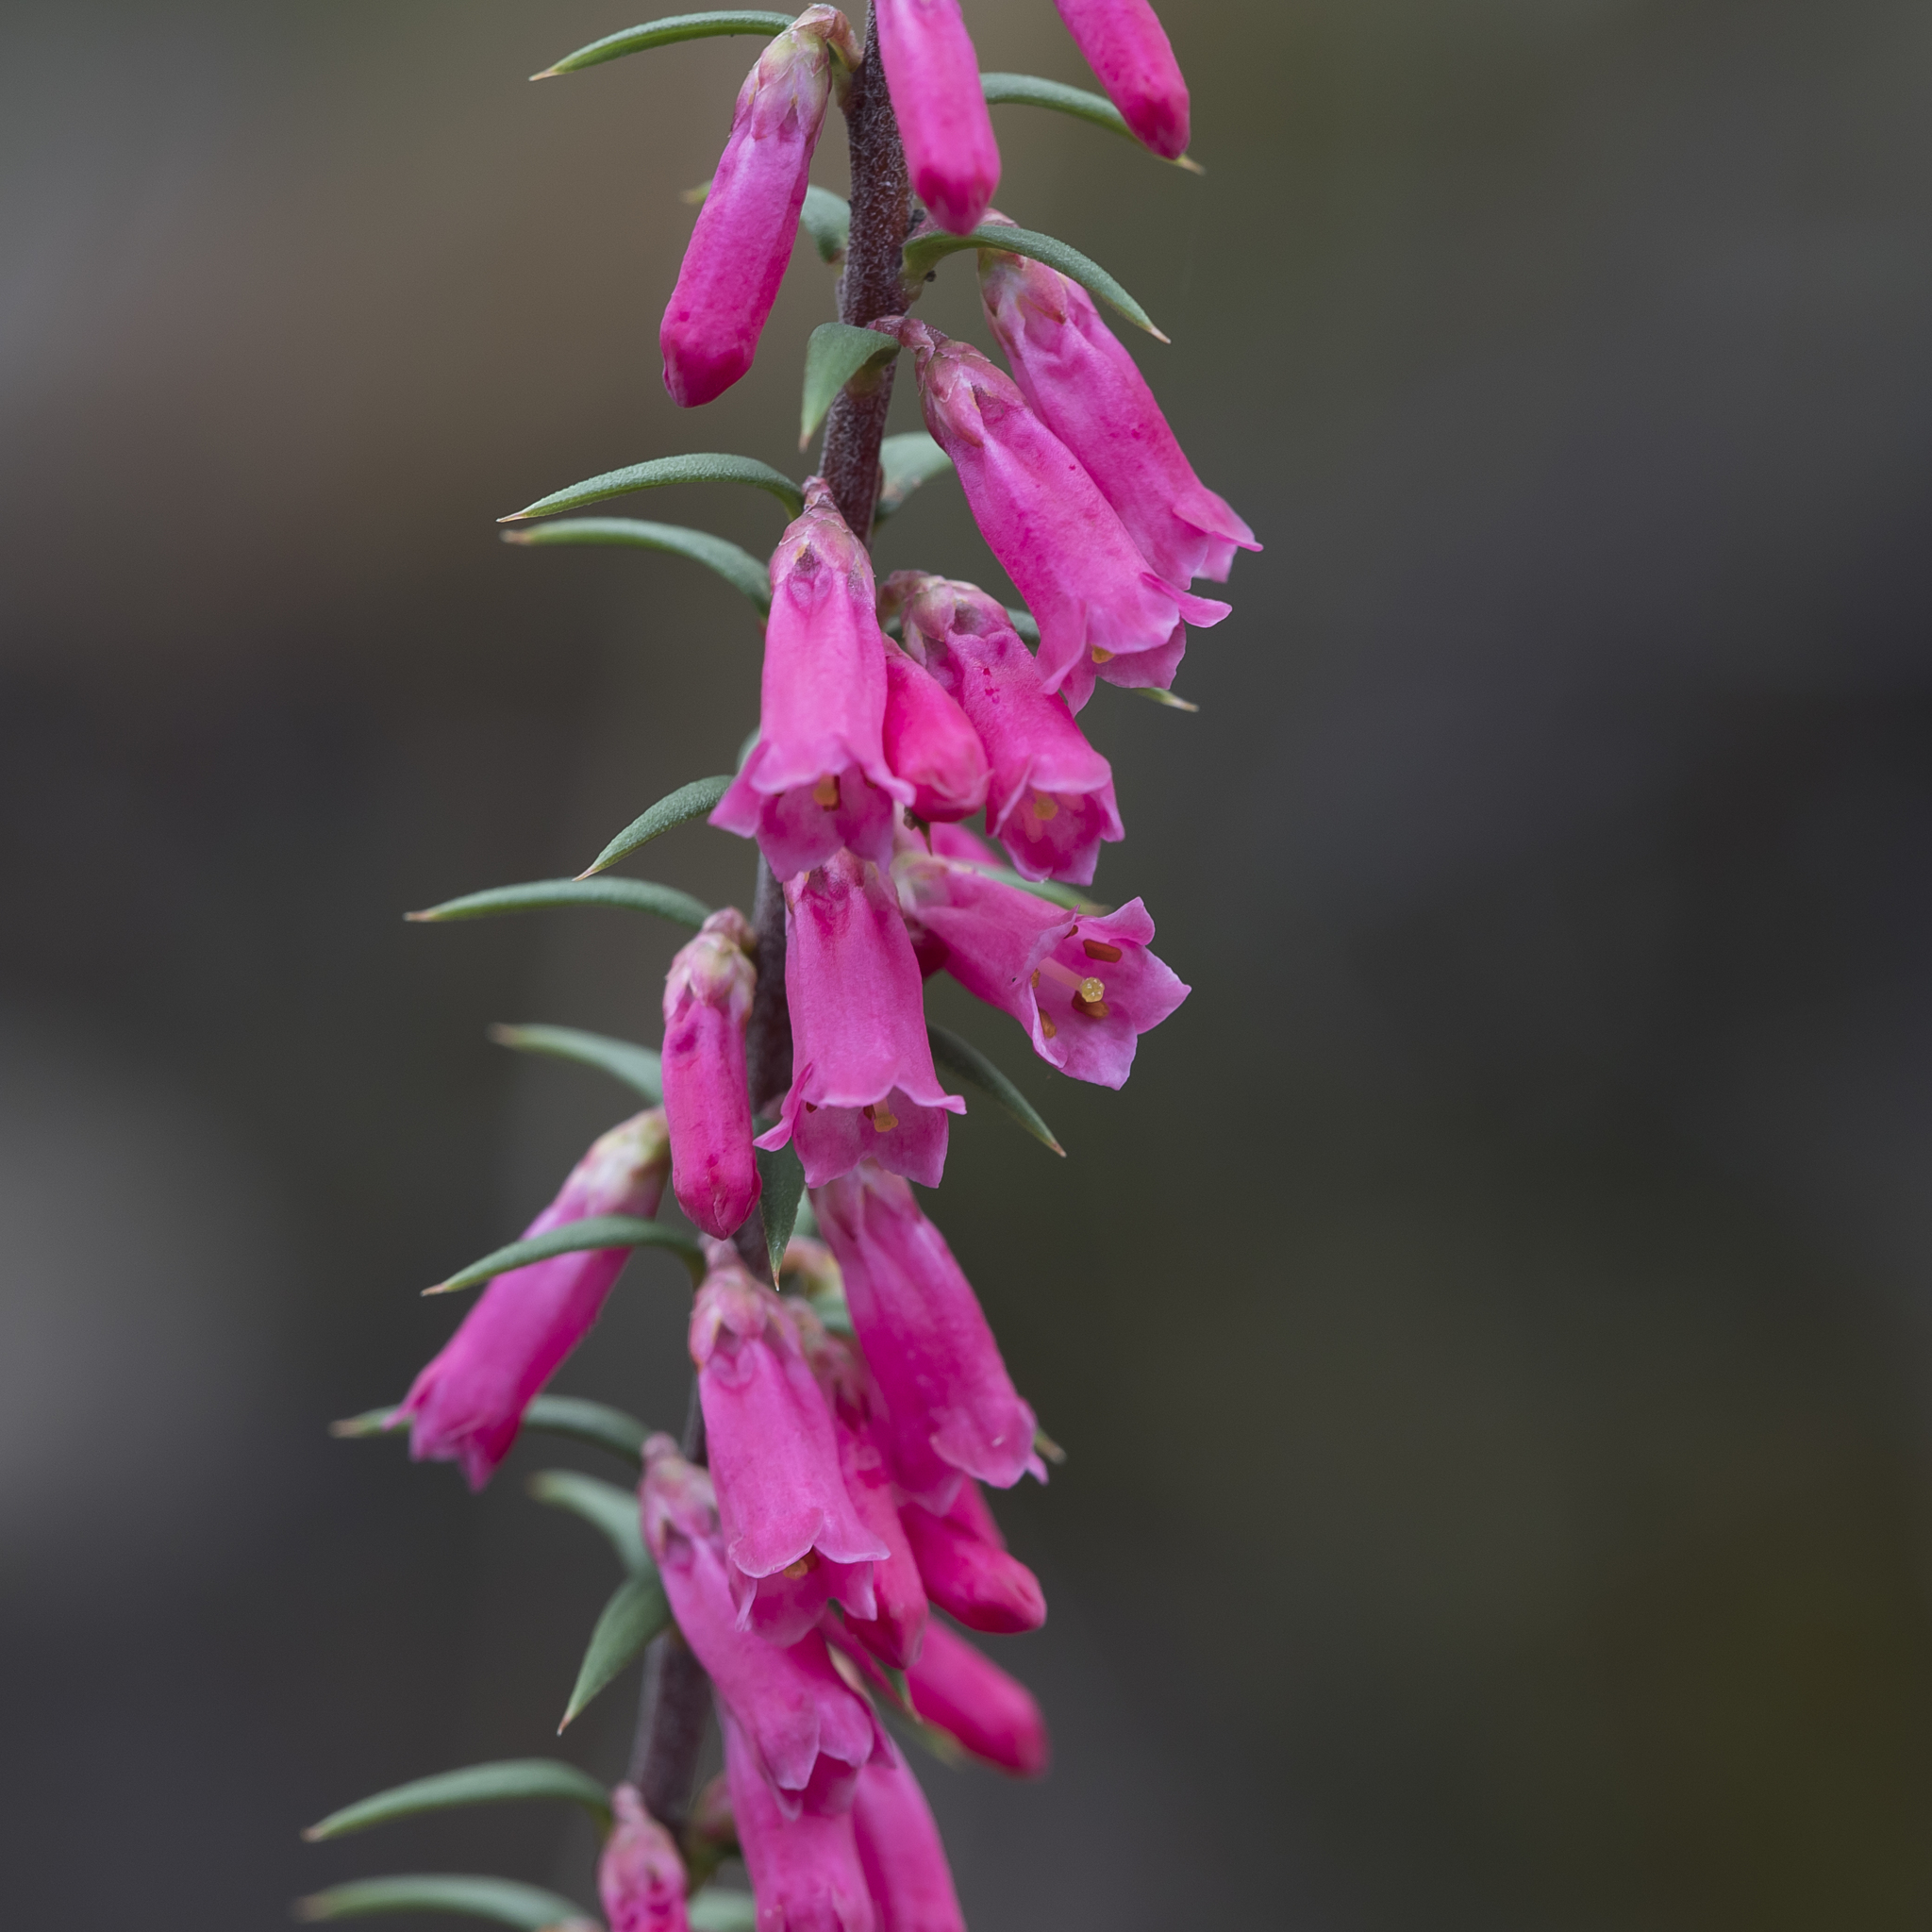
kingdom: Plantae
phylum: Tracheophyta
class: Magnoliopsida
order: Ericales
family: Ericaceae
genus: Epacris
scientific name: Epacris impressa
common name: Common-heath
